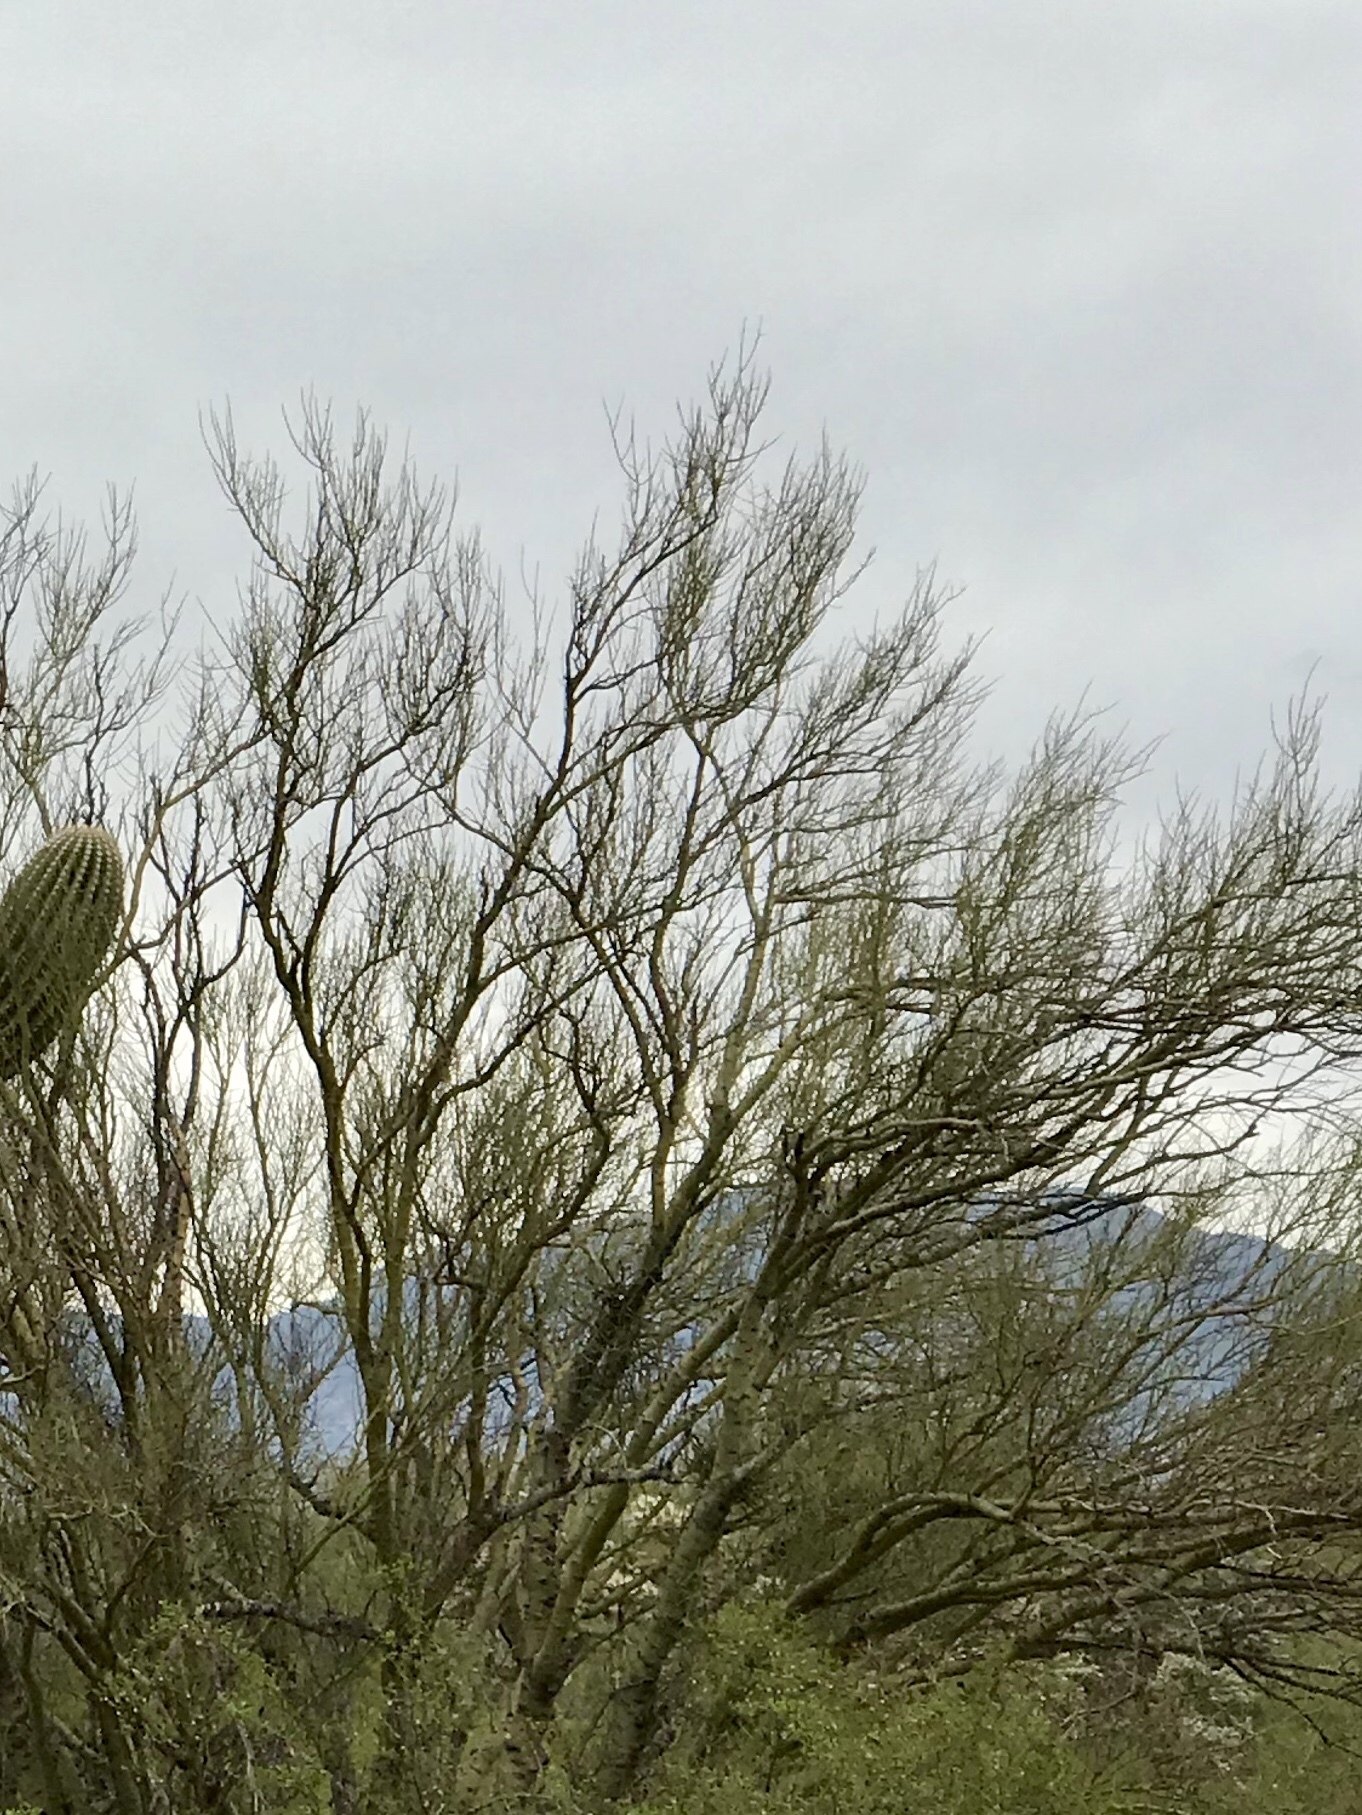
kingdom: Plantae
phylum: Tracheophyta
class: Magnoliopsida
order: Fabales
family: Fabaceae
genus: Parkinsonia
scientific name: Parkinsonia microphylla
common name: Yellow paloverde
